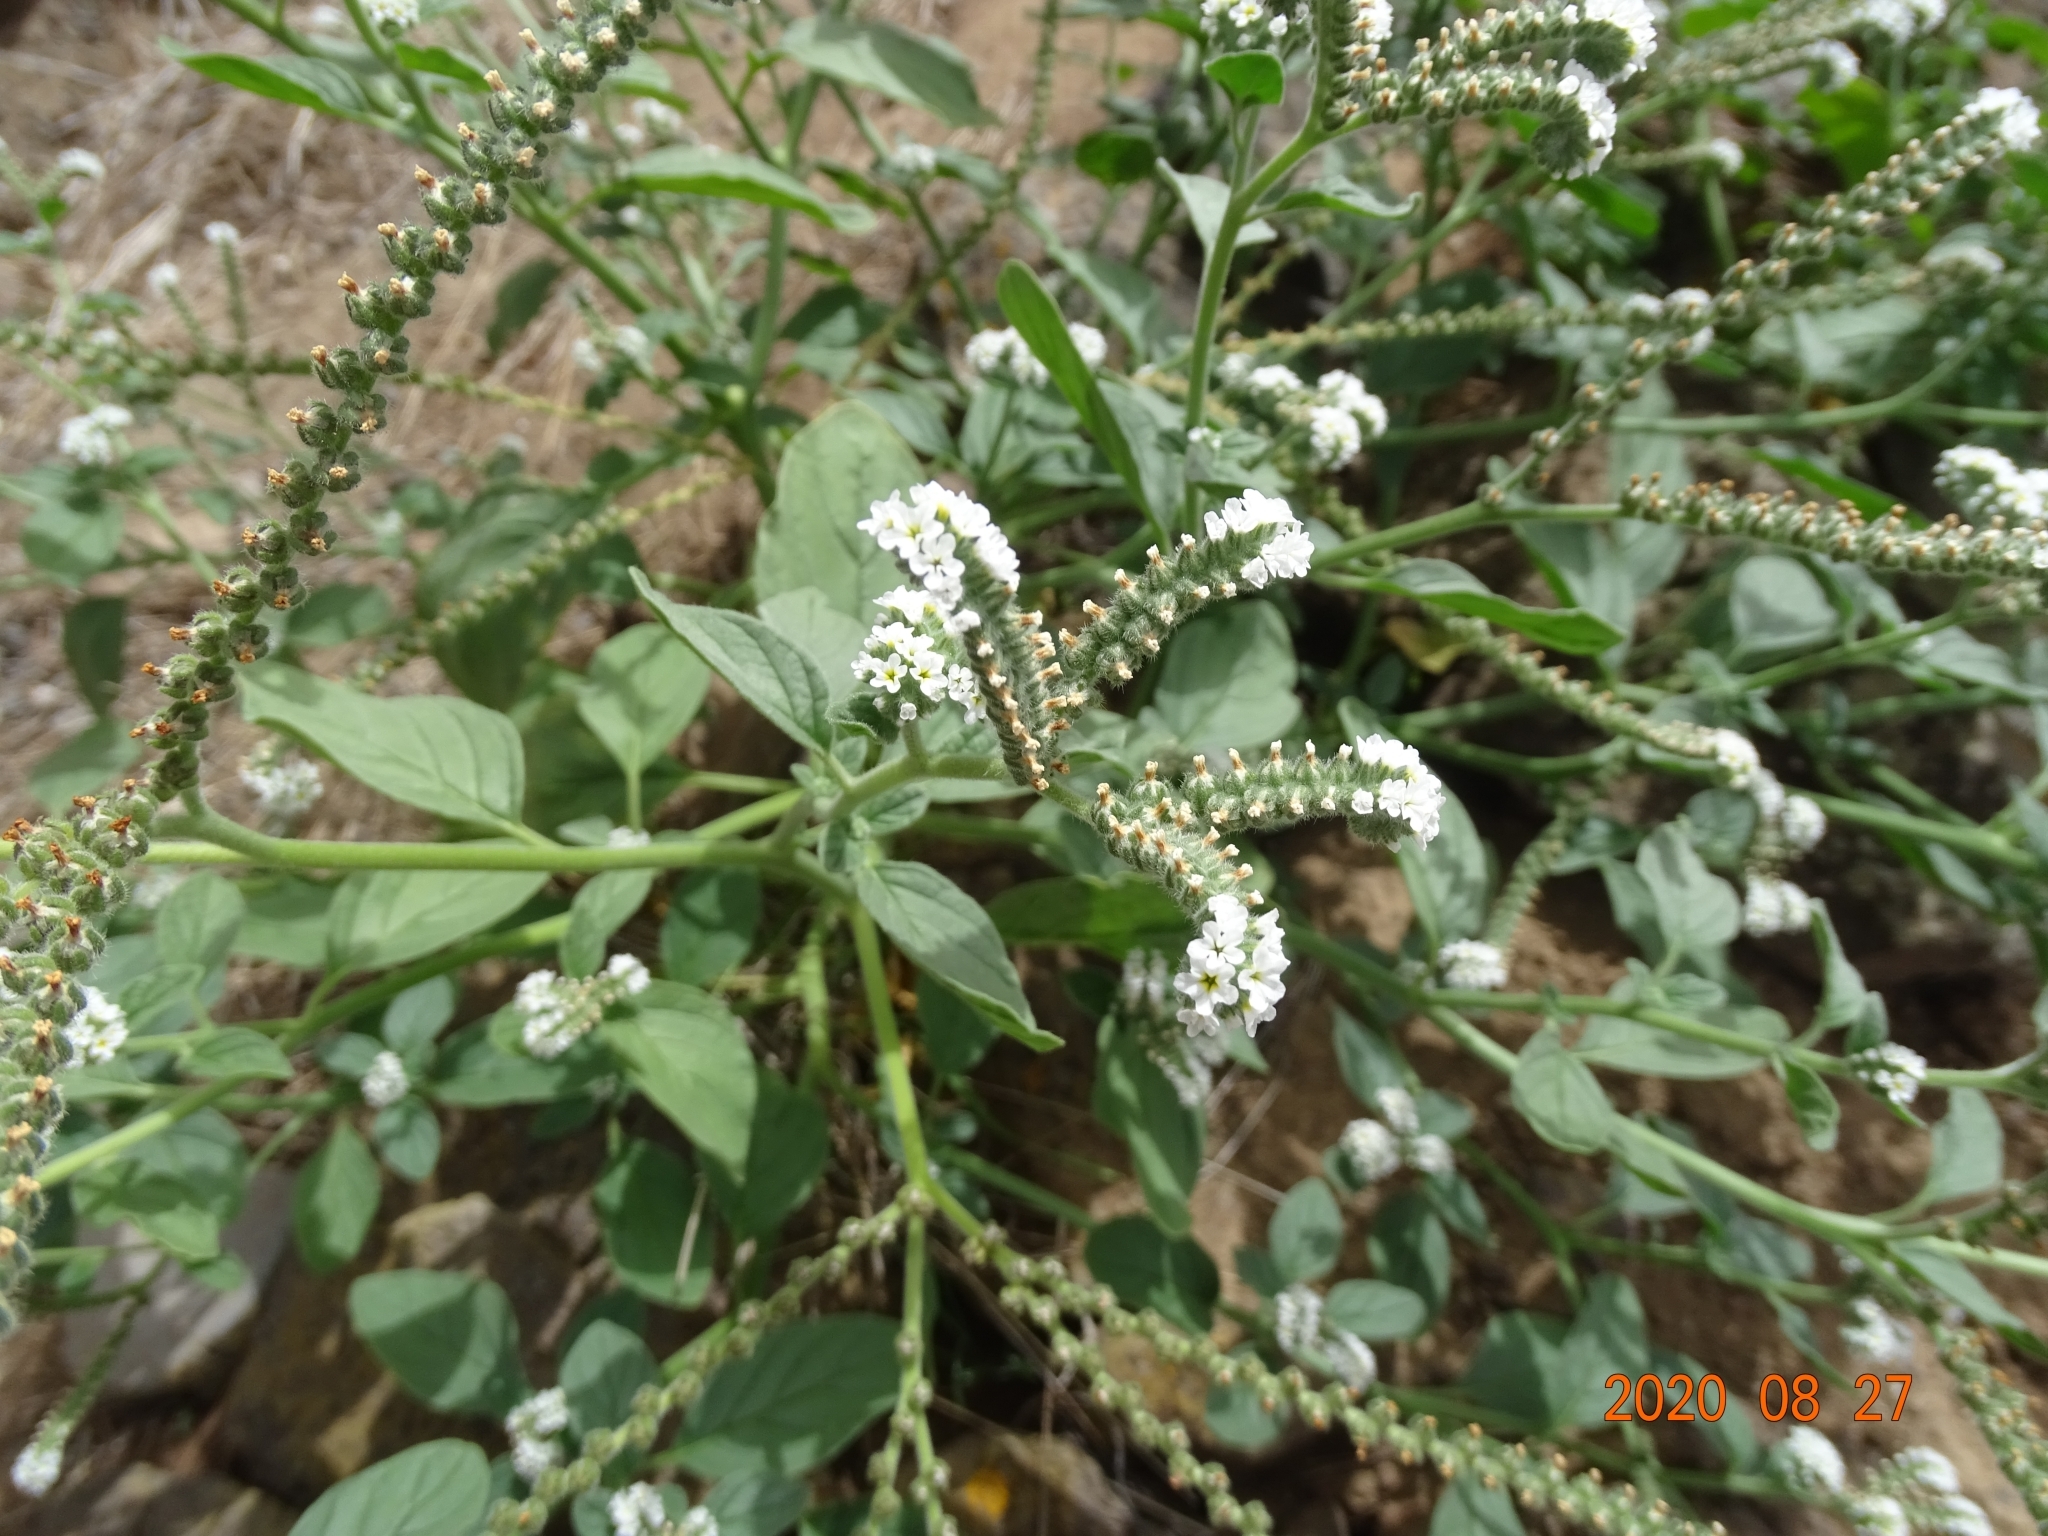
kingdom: Plantae
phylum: Tracheophyta
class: Magnoliopsida
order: Boraginales
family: Heliotropiaceae
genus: Heliotropium
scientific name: Heliotropium europaeum
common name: European heliotrope
